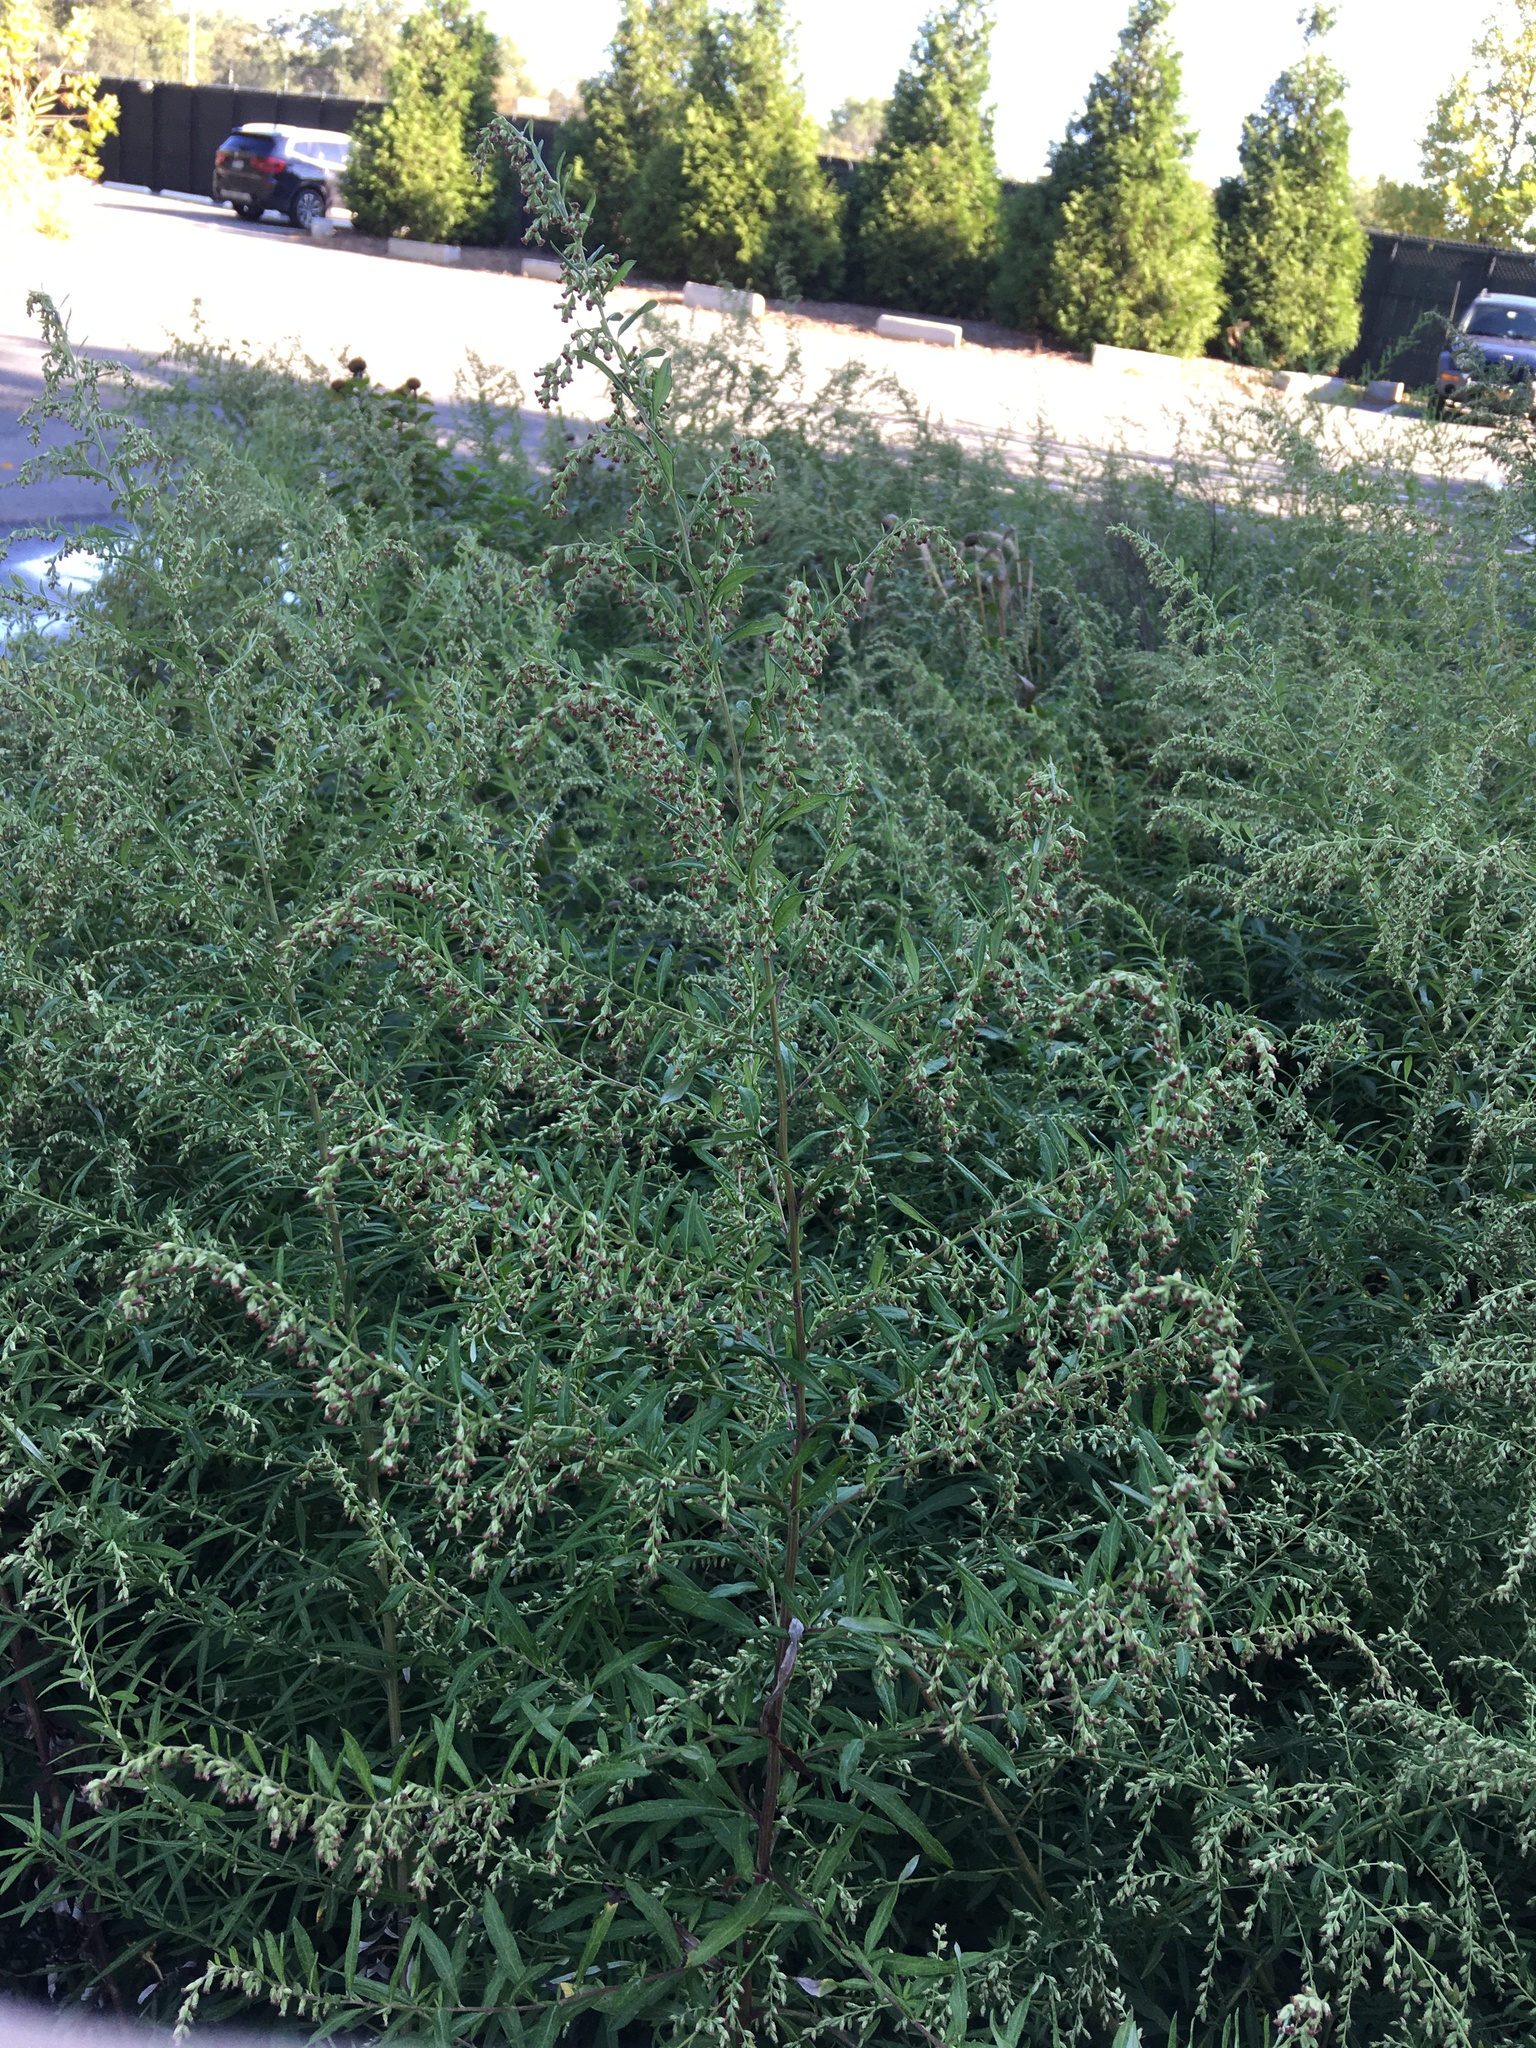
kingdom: Plantae
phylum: Tracheophyta
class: Magnoliopsida
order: Asterales
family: Asteraceae
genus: Artemisia
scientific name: Artemisia vulgaris
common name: Mugwort
